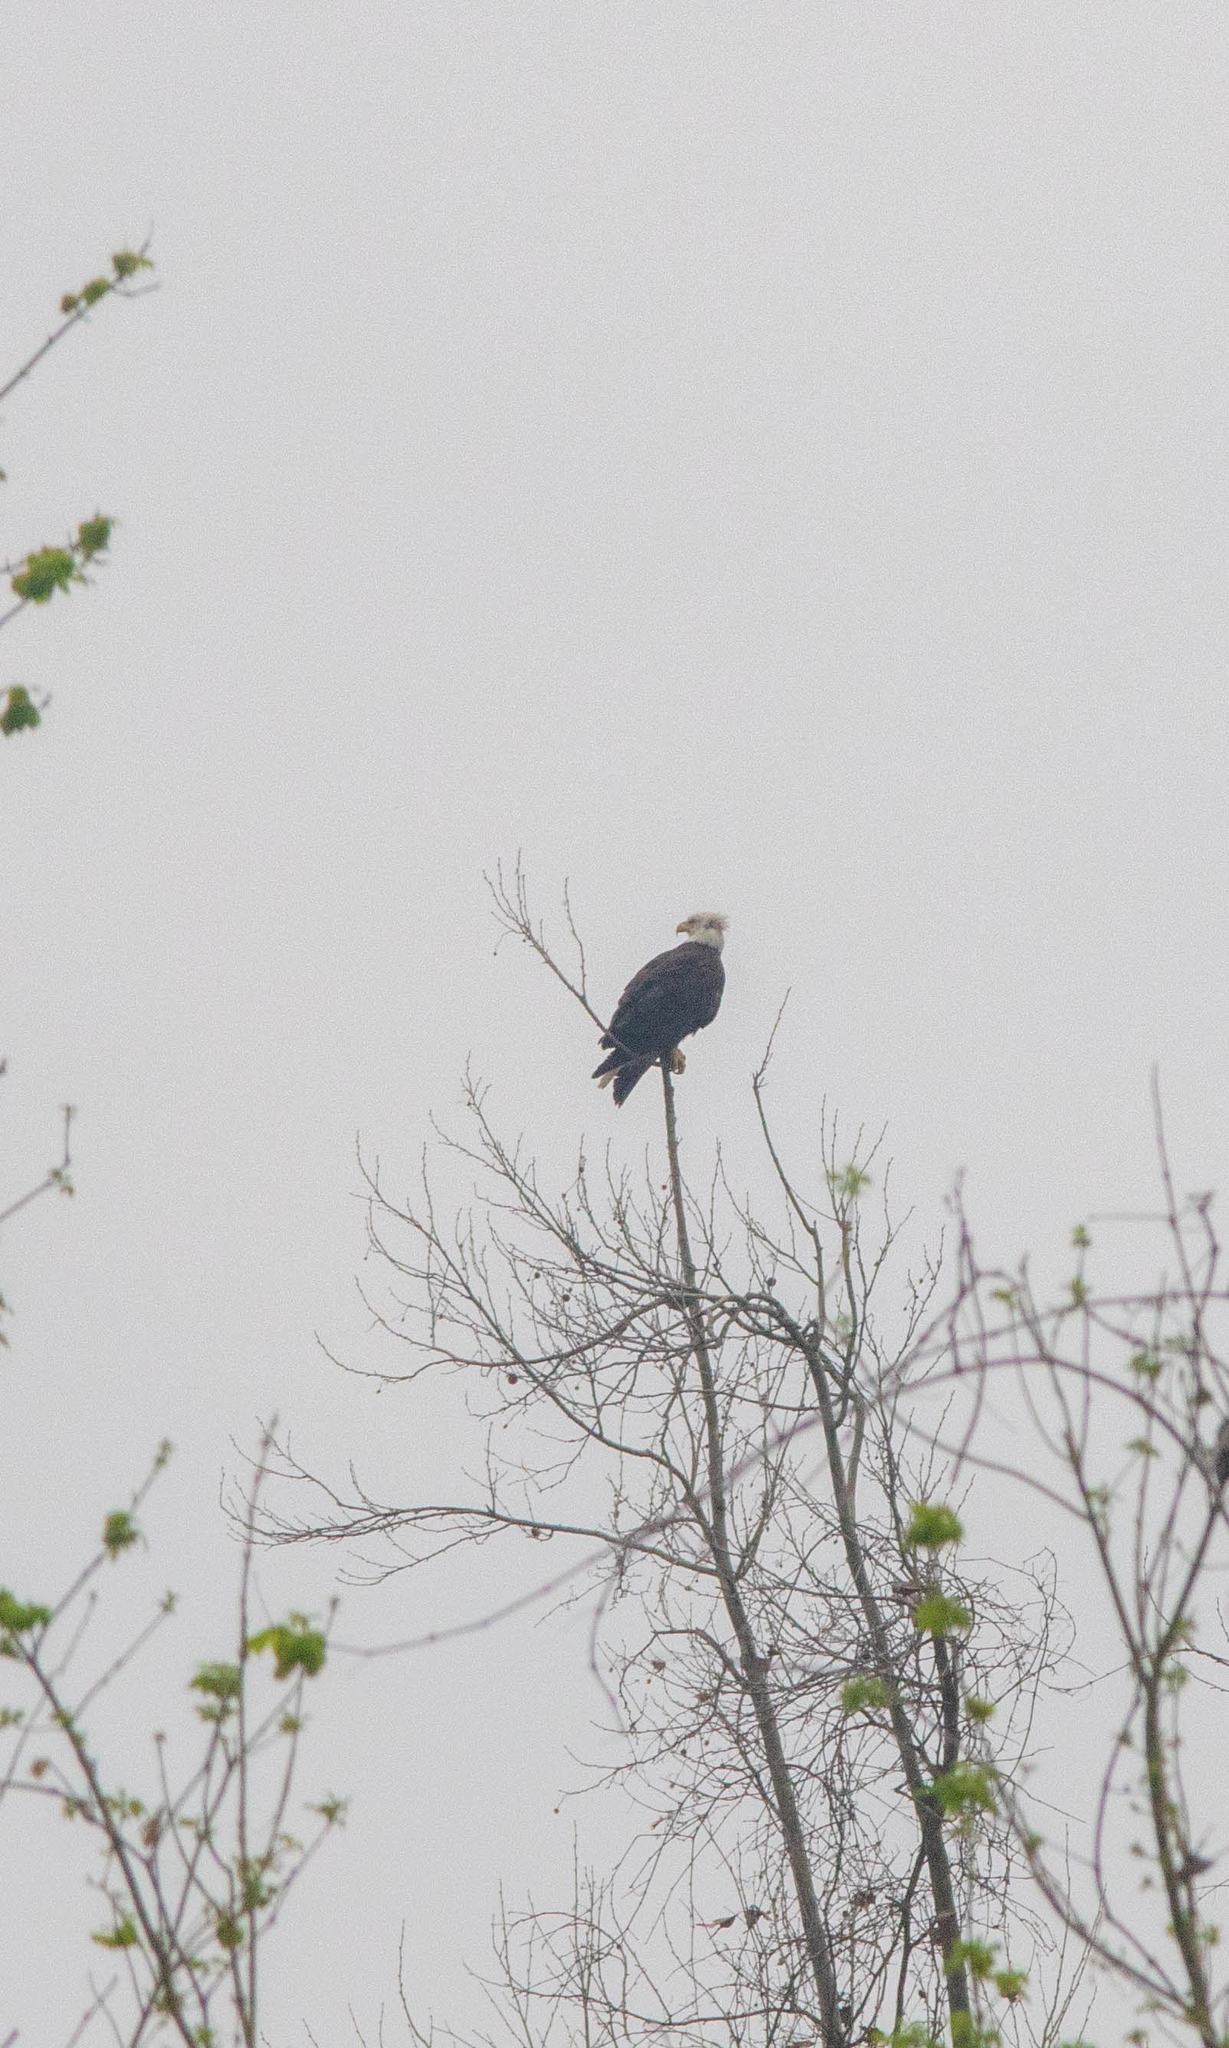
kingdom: Animalia
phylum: Chordata
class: Aves
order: Accipitriformes
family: Accipitridae
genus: Haliaeetus
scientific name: Haliaeetus leucocephalus
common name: Bald eagle
